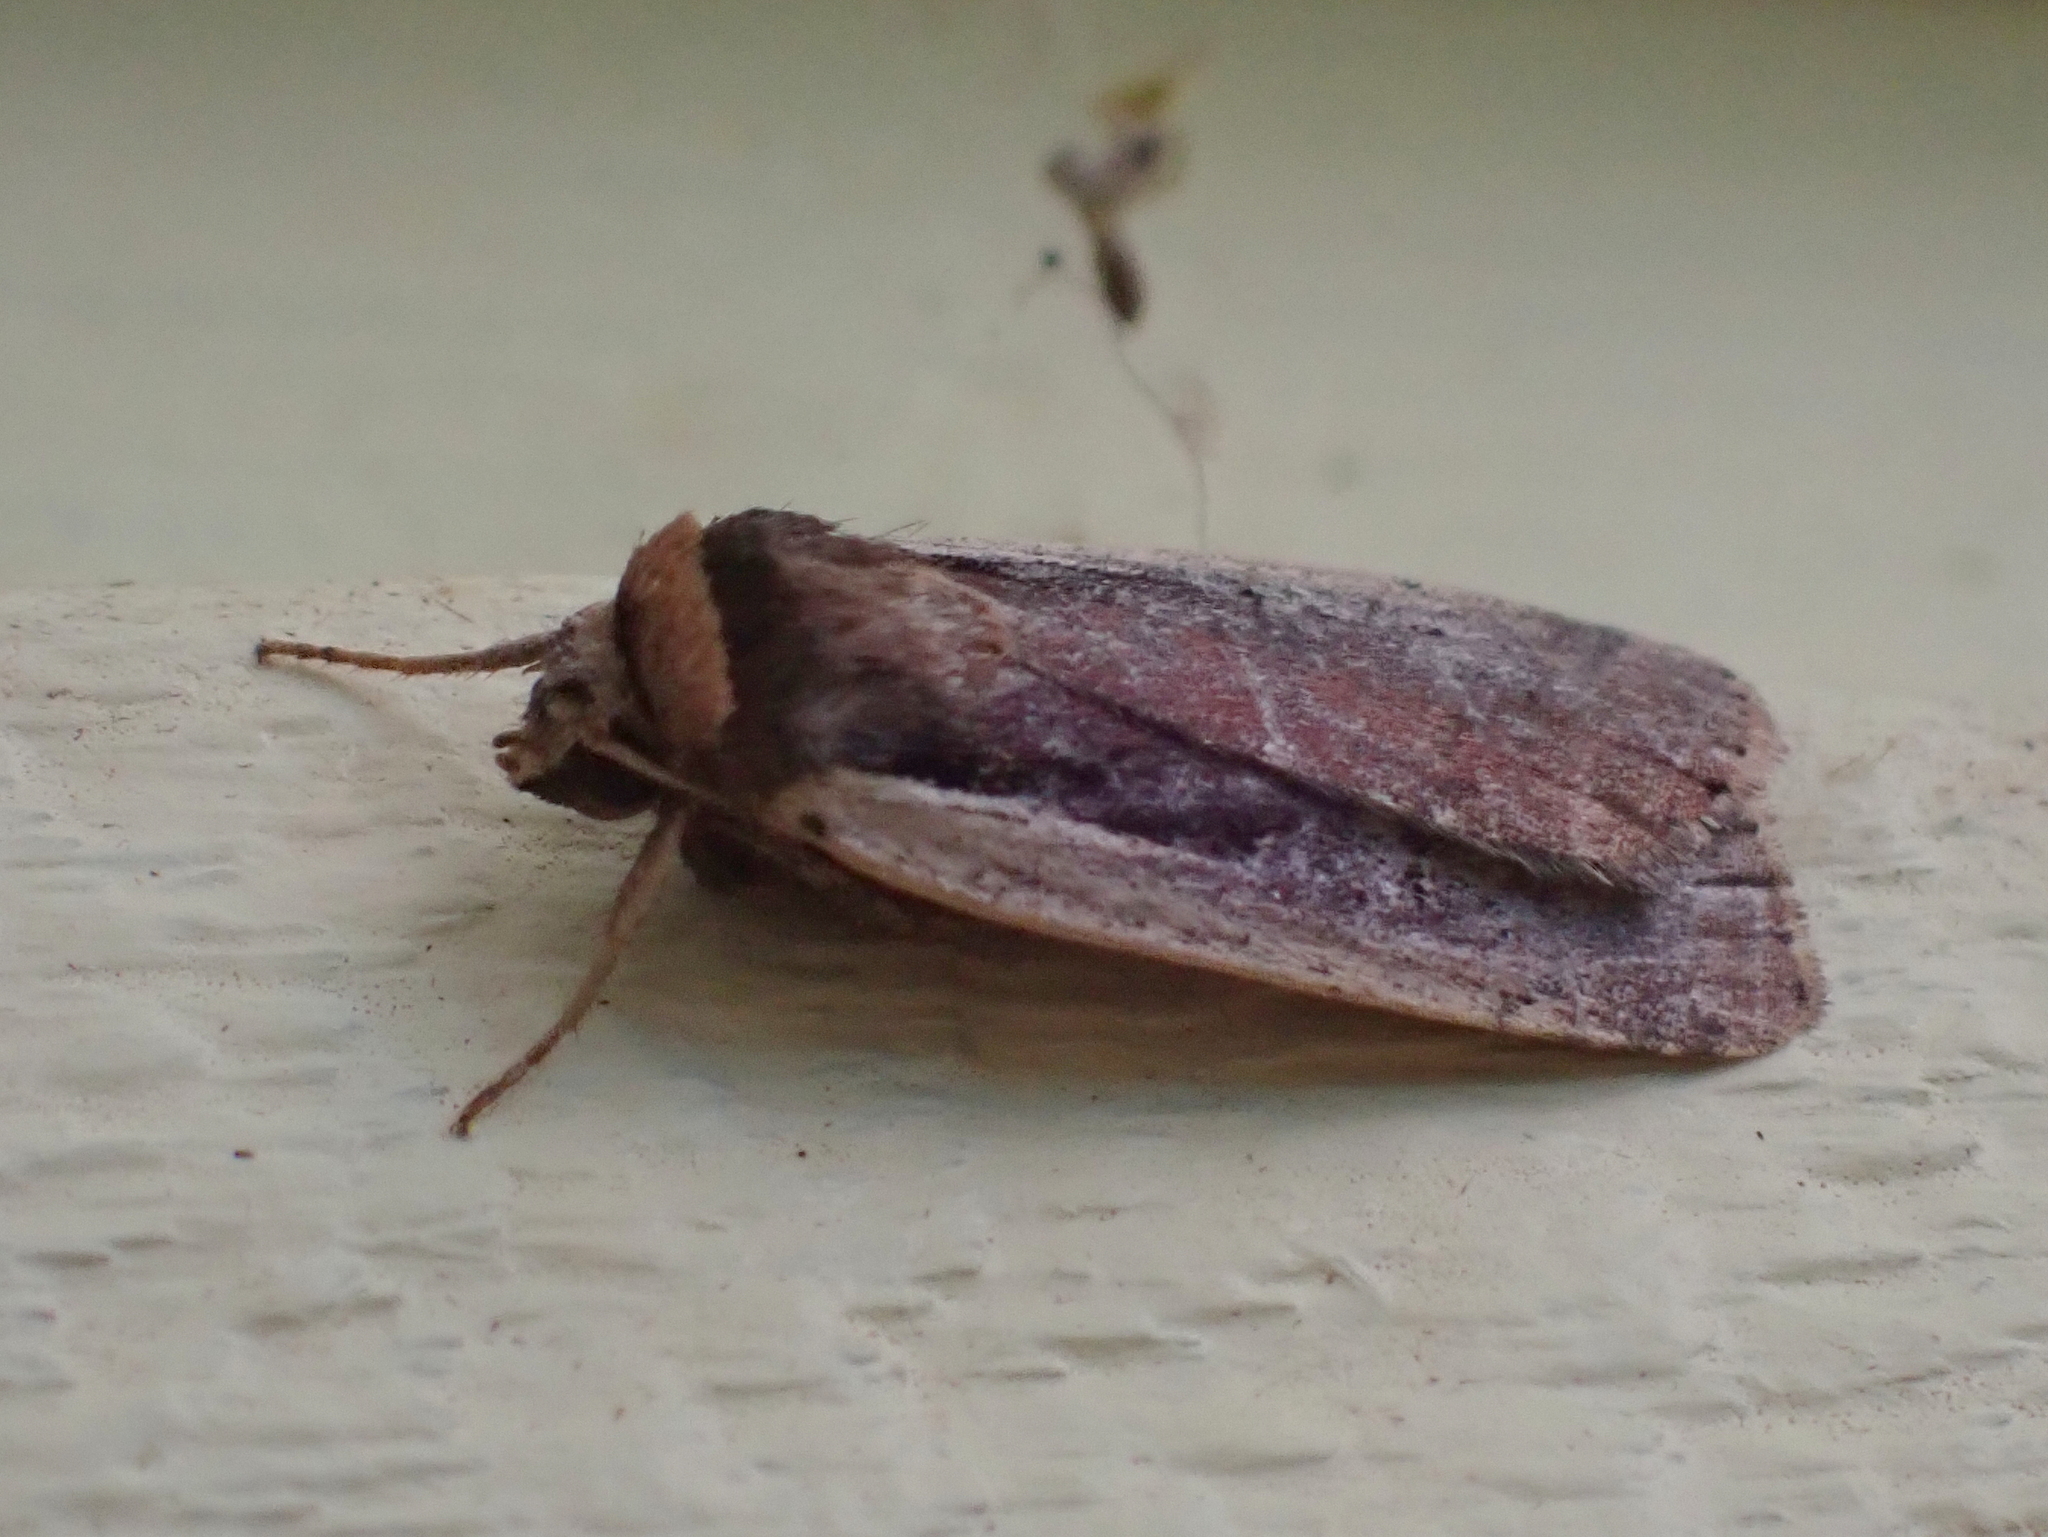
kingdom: Animalia
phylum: Arthropoda
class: Insecta
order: Lepidoptera
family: Noctuidae
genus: Ochropleura
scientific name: Ochropleura implecta
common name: Flame-shouldered dart
